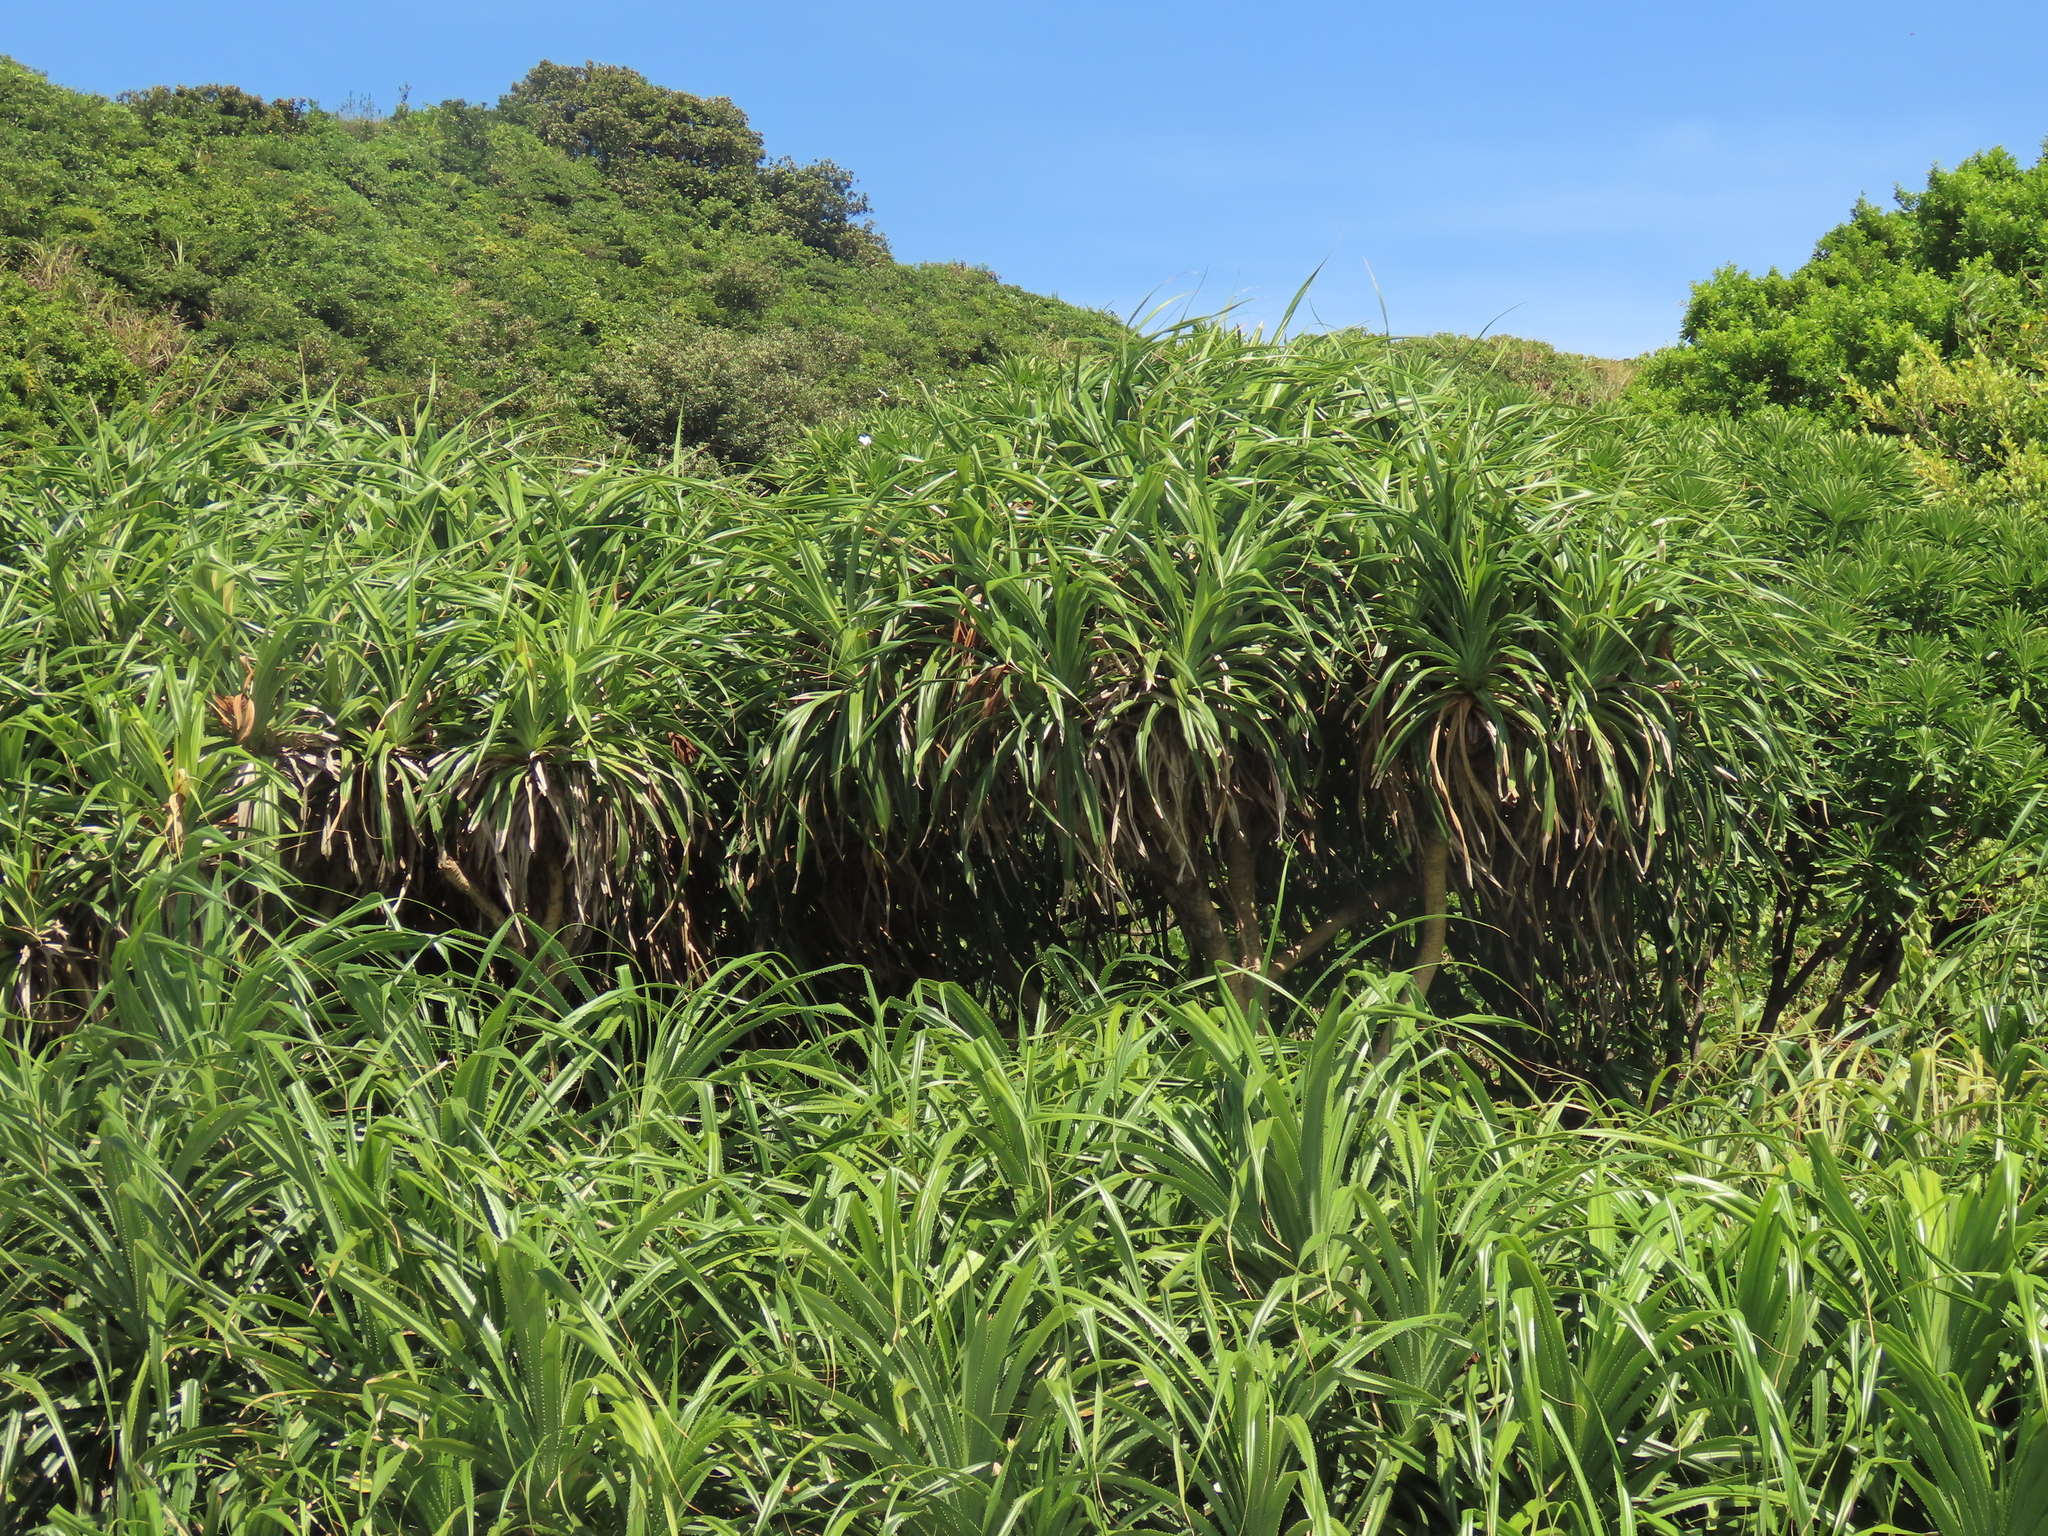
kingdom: Plantae
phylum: Tracheophyta
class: Liliopsida
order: Pandanales
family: Pandanaceae
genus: Pandanus
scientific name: Pandanus odorifer
